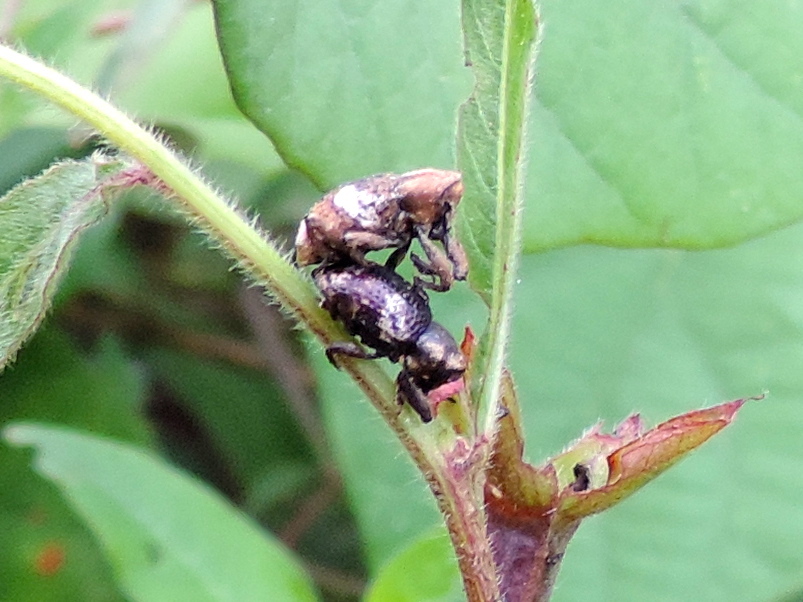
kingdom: Animalia
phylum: Arthropoda
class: Insecta
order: Coleoptera
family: Curculionidae
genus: Tyloderma
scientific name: Tyloderma
